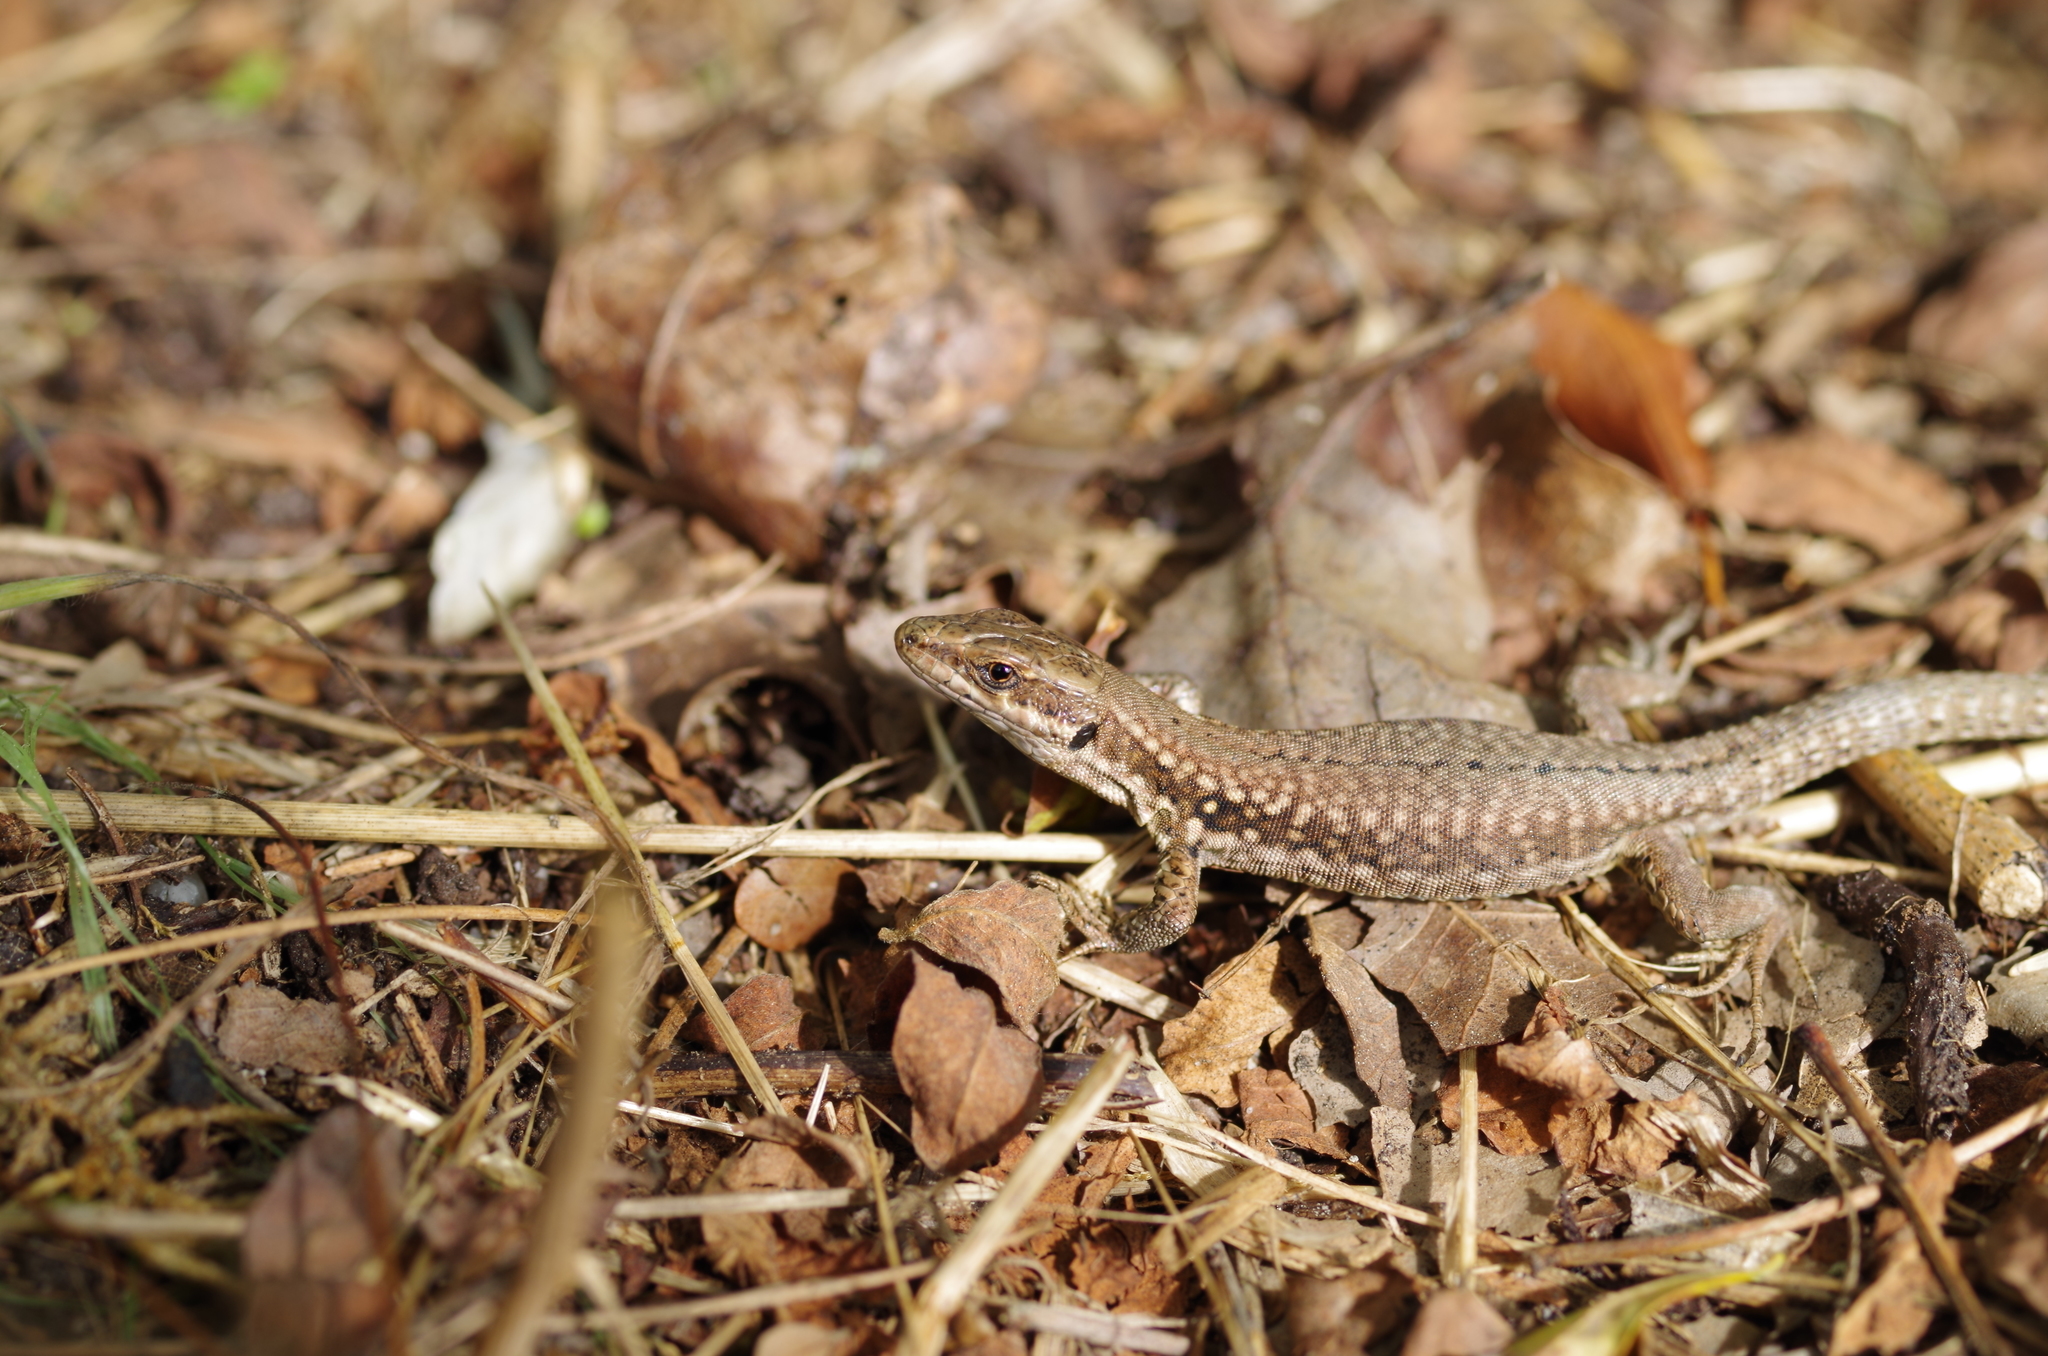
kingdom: Animalia
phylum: Chordata
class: Squamata
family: Lacertidae
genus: Podarcis
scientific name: Podarcis muralis
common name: Common wall lizard
